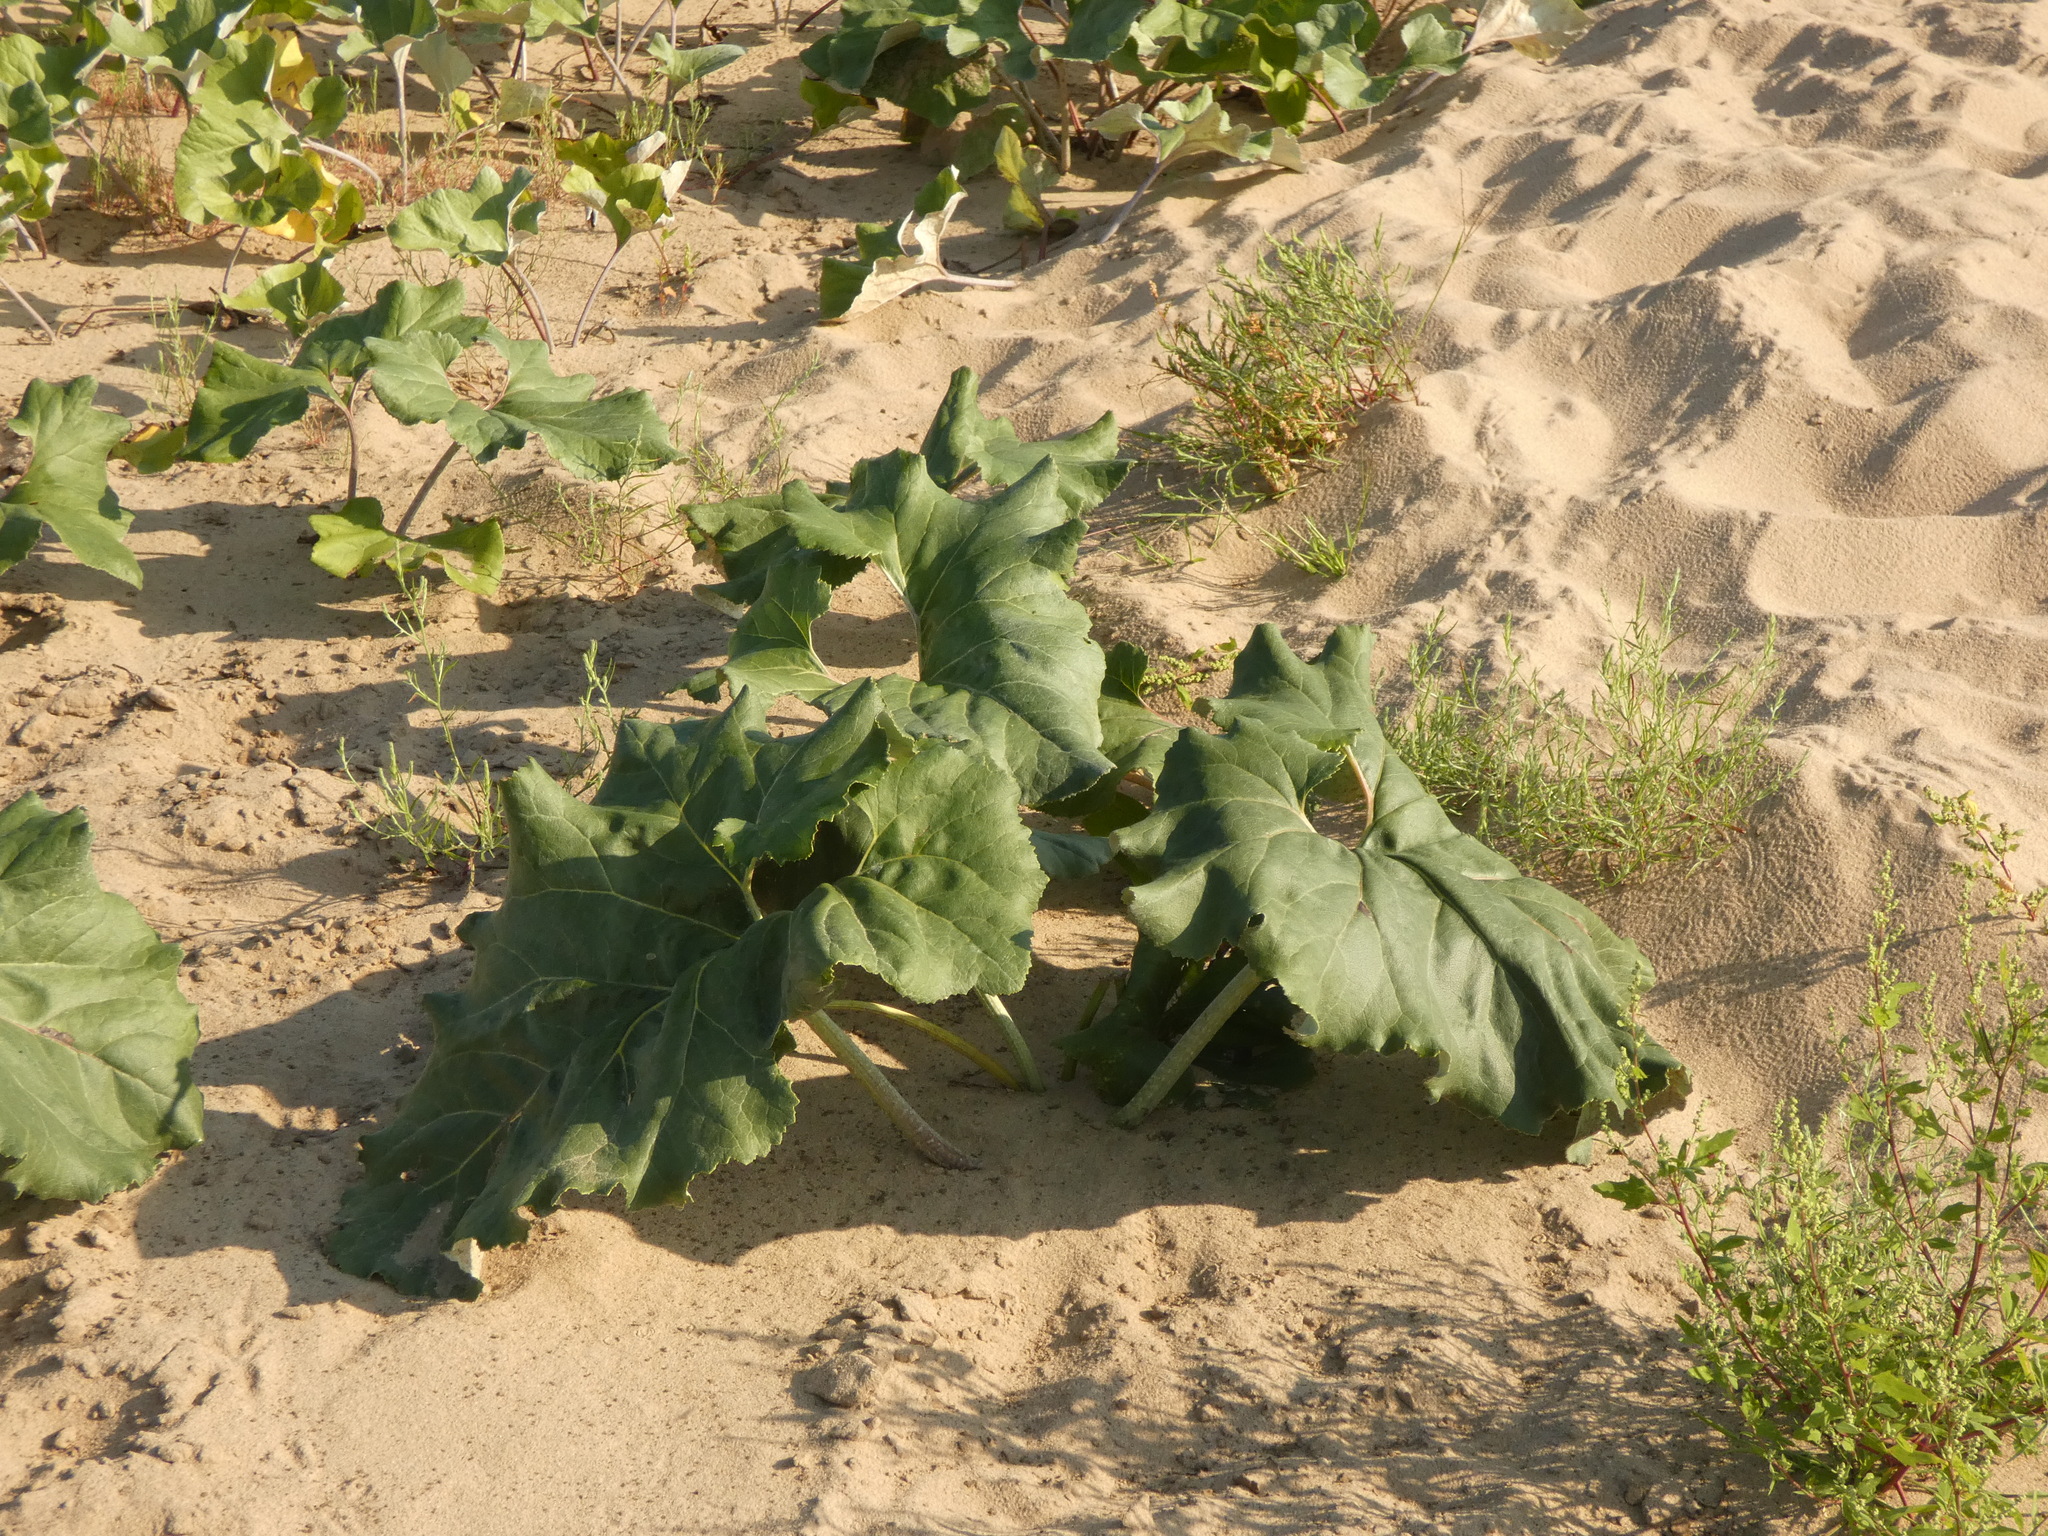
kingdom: Plantae
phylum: Tracheophyta
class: Magnoliopsida
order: Asterales
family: Asteraceae
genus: Petasites
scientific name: Petasites spurius
